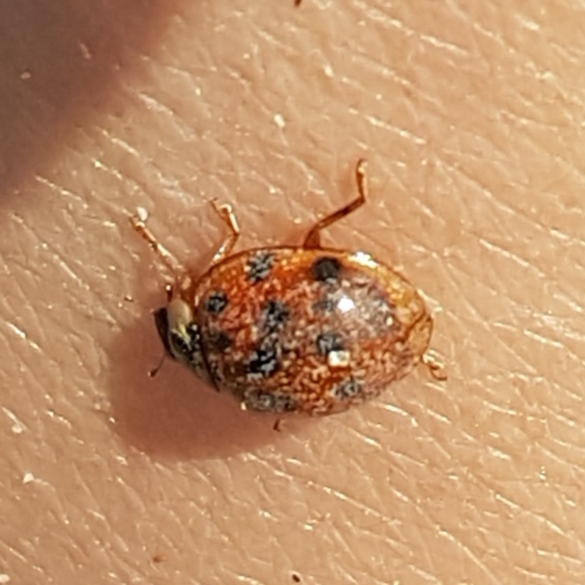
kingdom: Animalia
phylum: Arthropoda
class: Insecta
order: Coleoptera
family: Coccinellidae
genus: Harmonia
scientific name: Harmonia axyridis
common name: Harlequin ladybird
